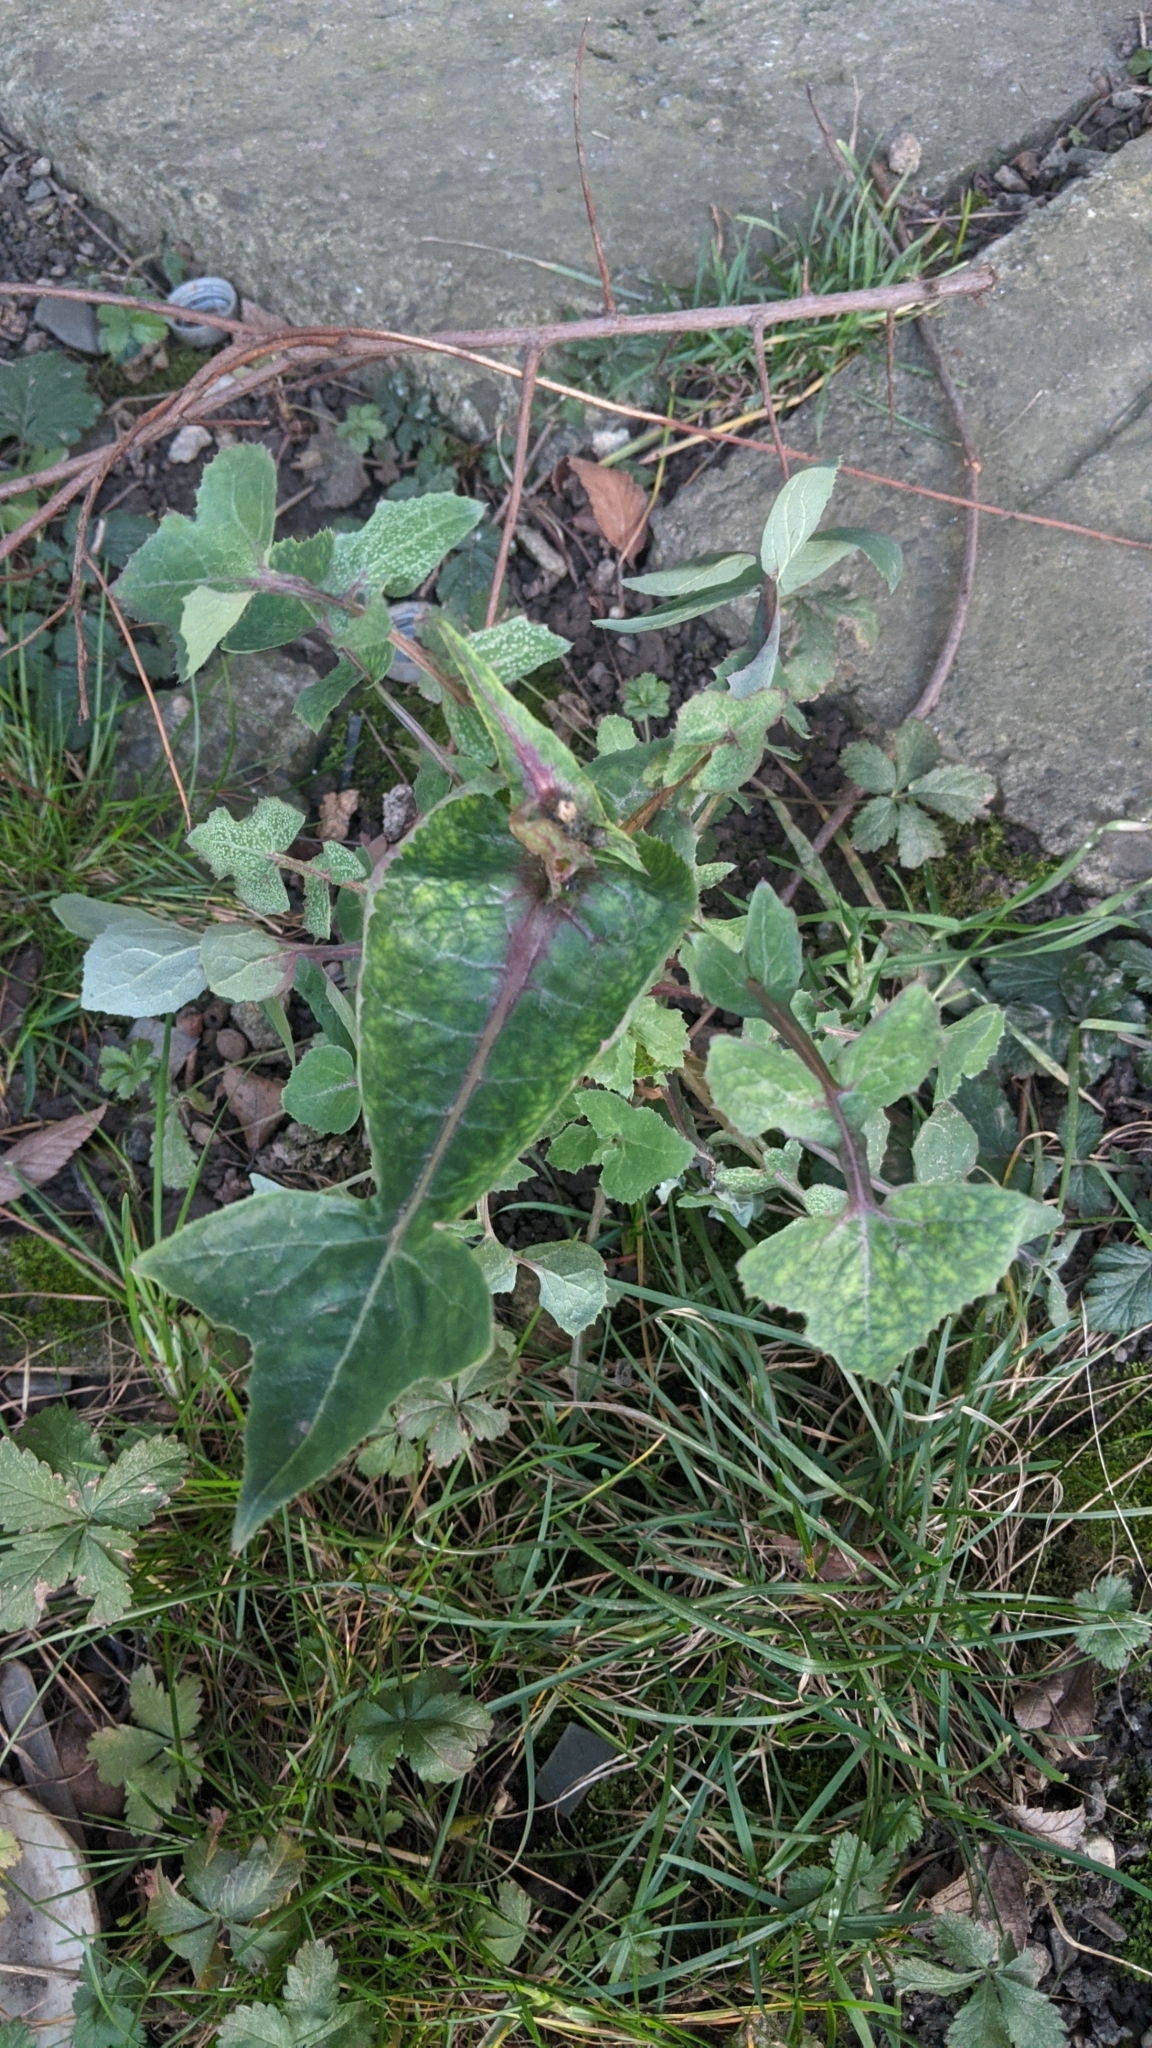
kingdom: Plantae
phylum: Tracheophyta
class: Magnoliopsida
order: Asterales
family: Asteraceae
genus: Sonchus
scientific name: Sonchus oleraceus
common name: Common sowthistle
